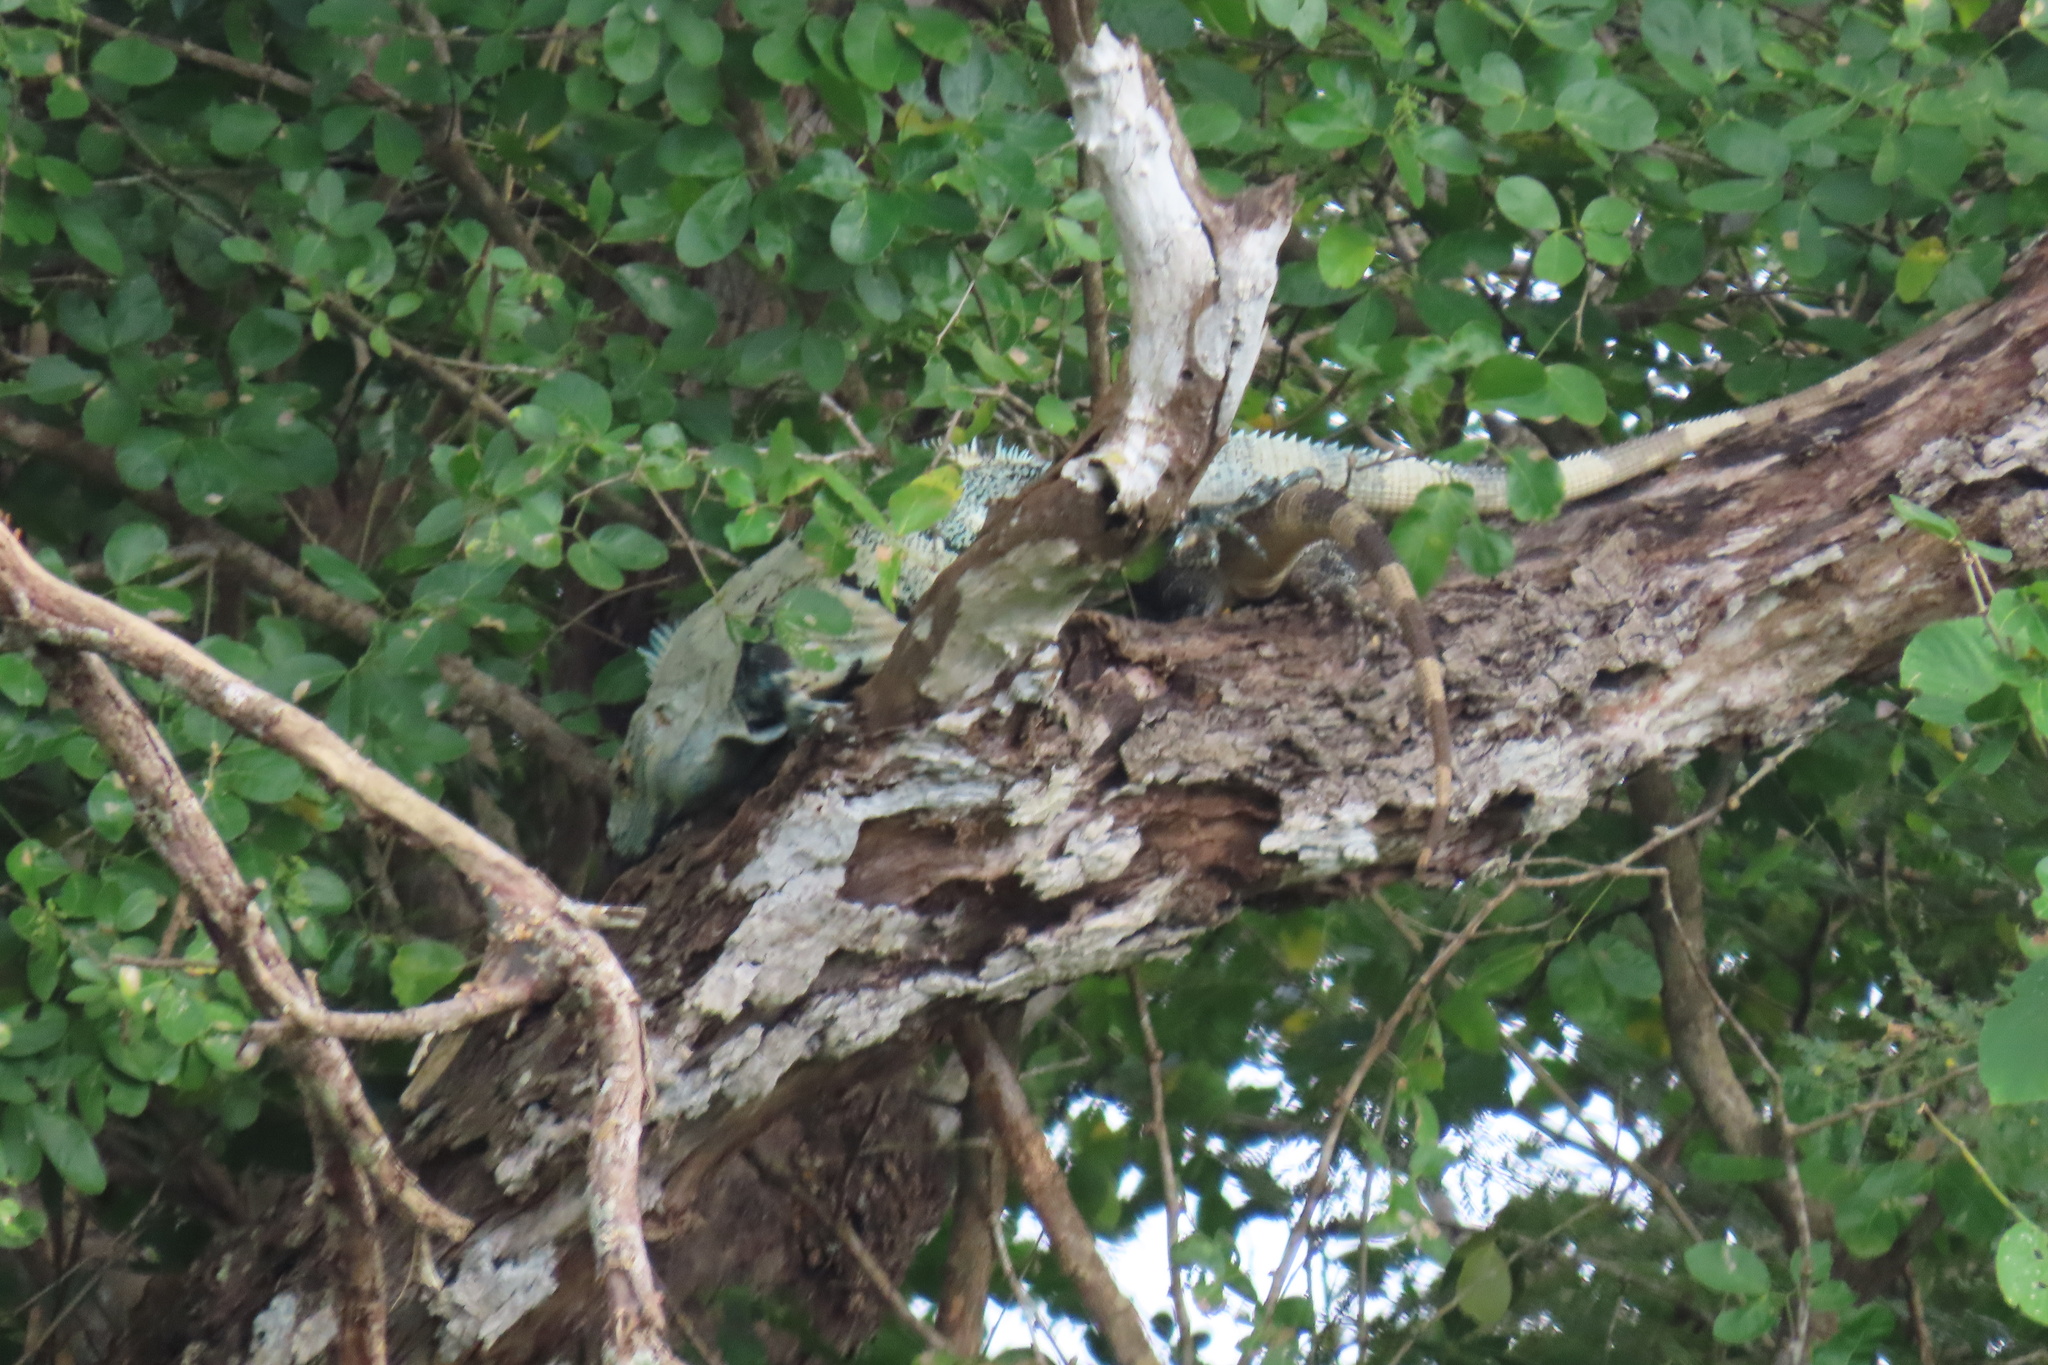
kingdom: Animalia
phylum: Chordata
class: Squamata
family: Iguanidae
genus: Ctenosaura
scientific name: Ctenosaura similis
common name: Black spiny-tailed iguana
